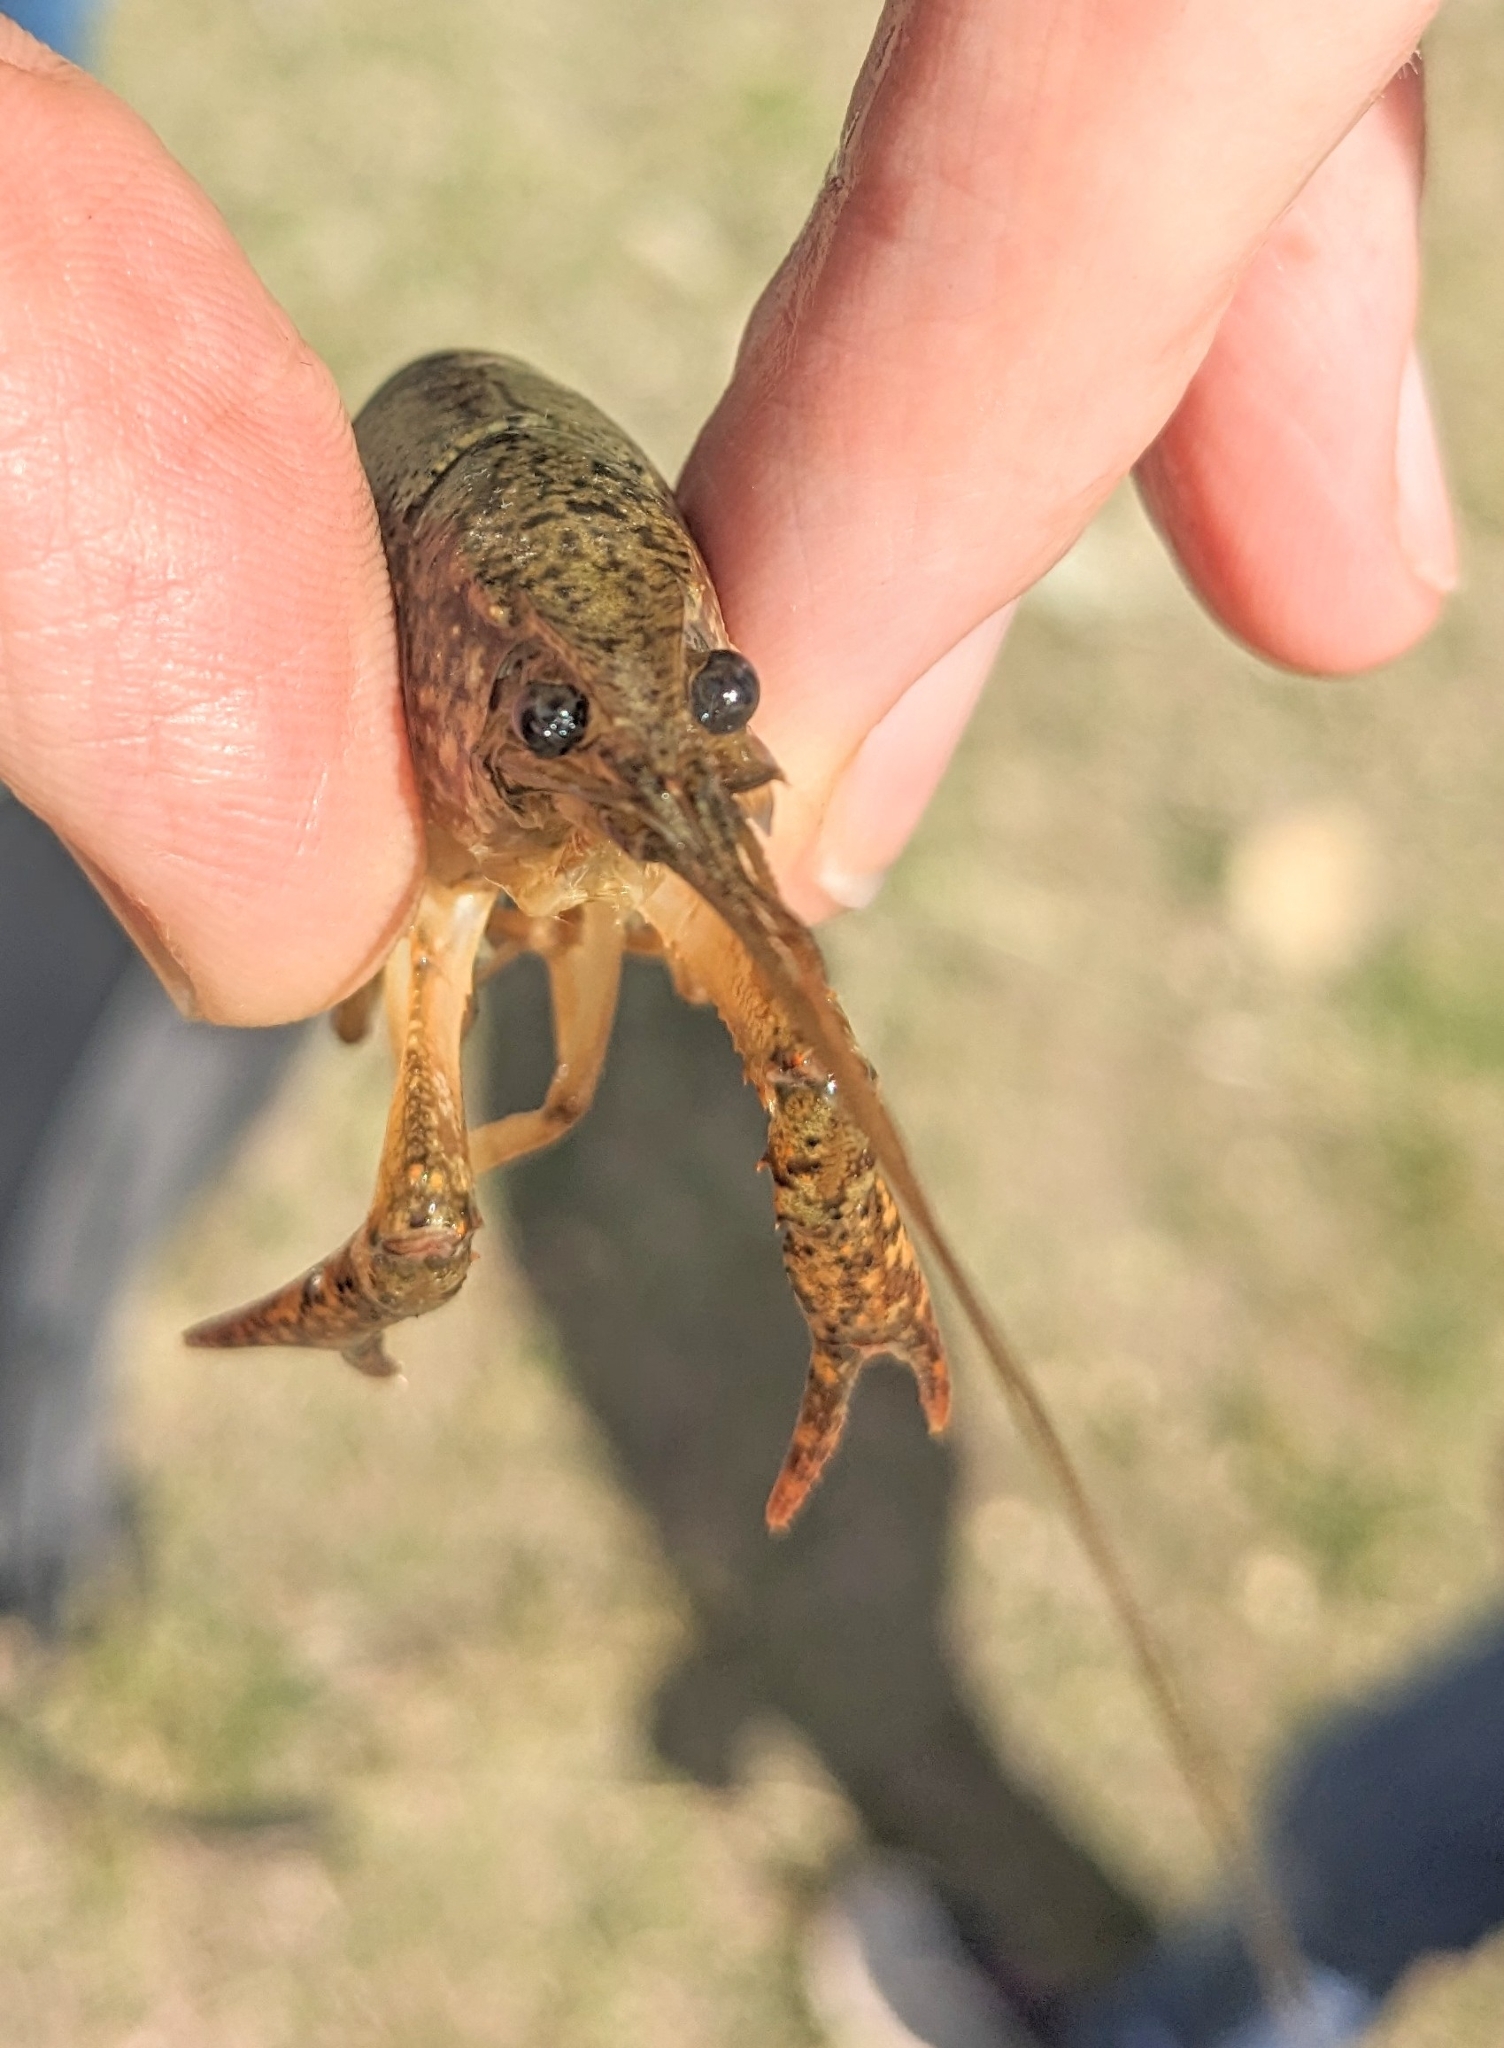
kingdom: Animalia
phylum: Arthropoda
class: Malacostraca
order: Decapoda
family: Cambaridae
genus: Procambarus
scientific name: Procambarus clarkii
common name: Red swamp crayfish
